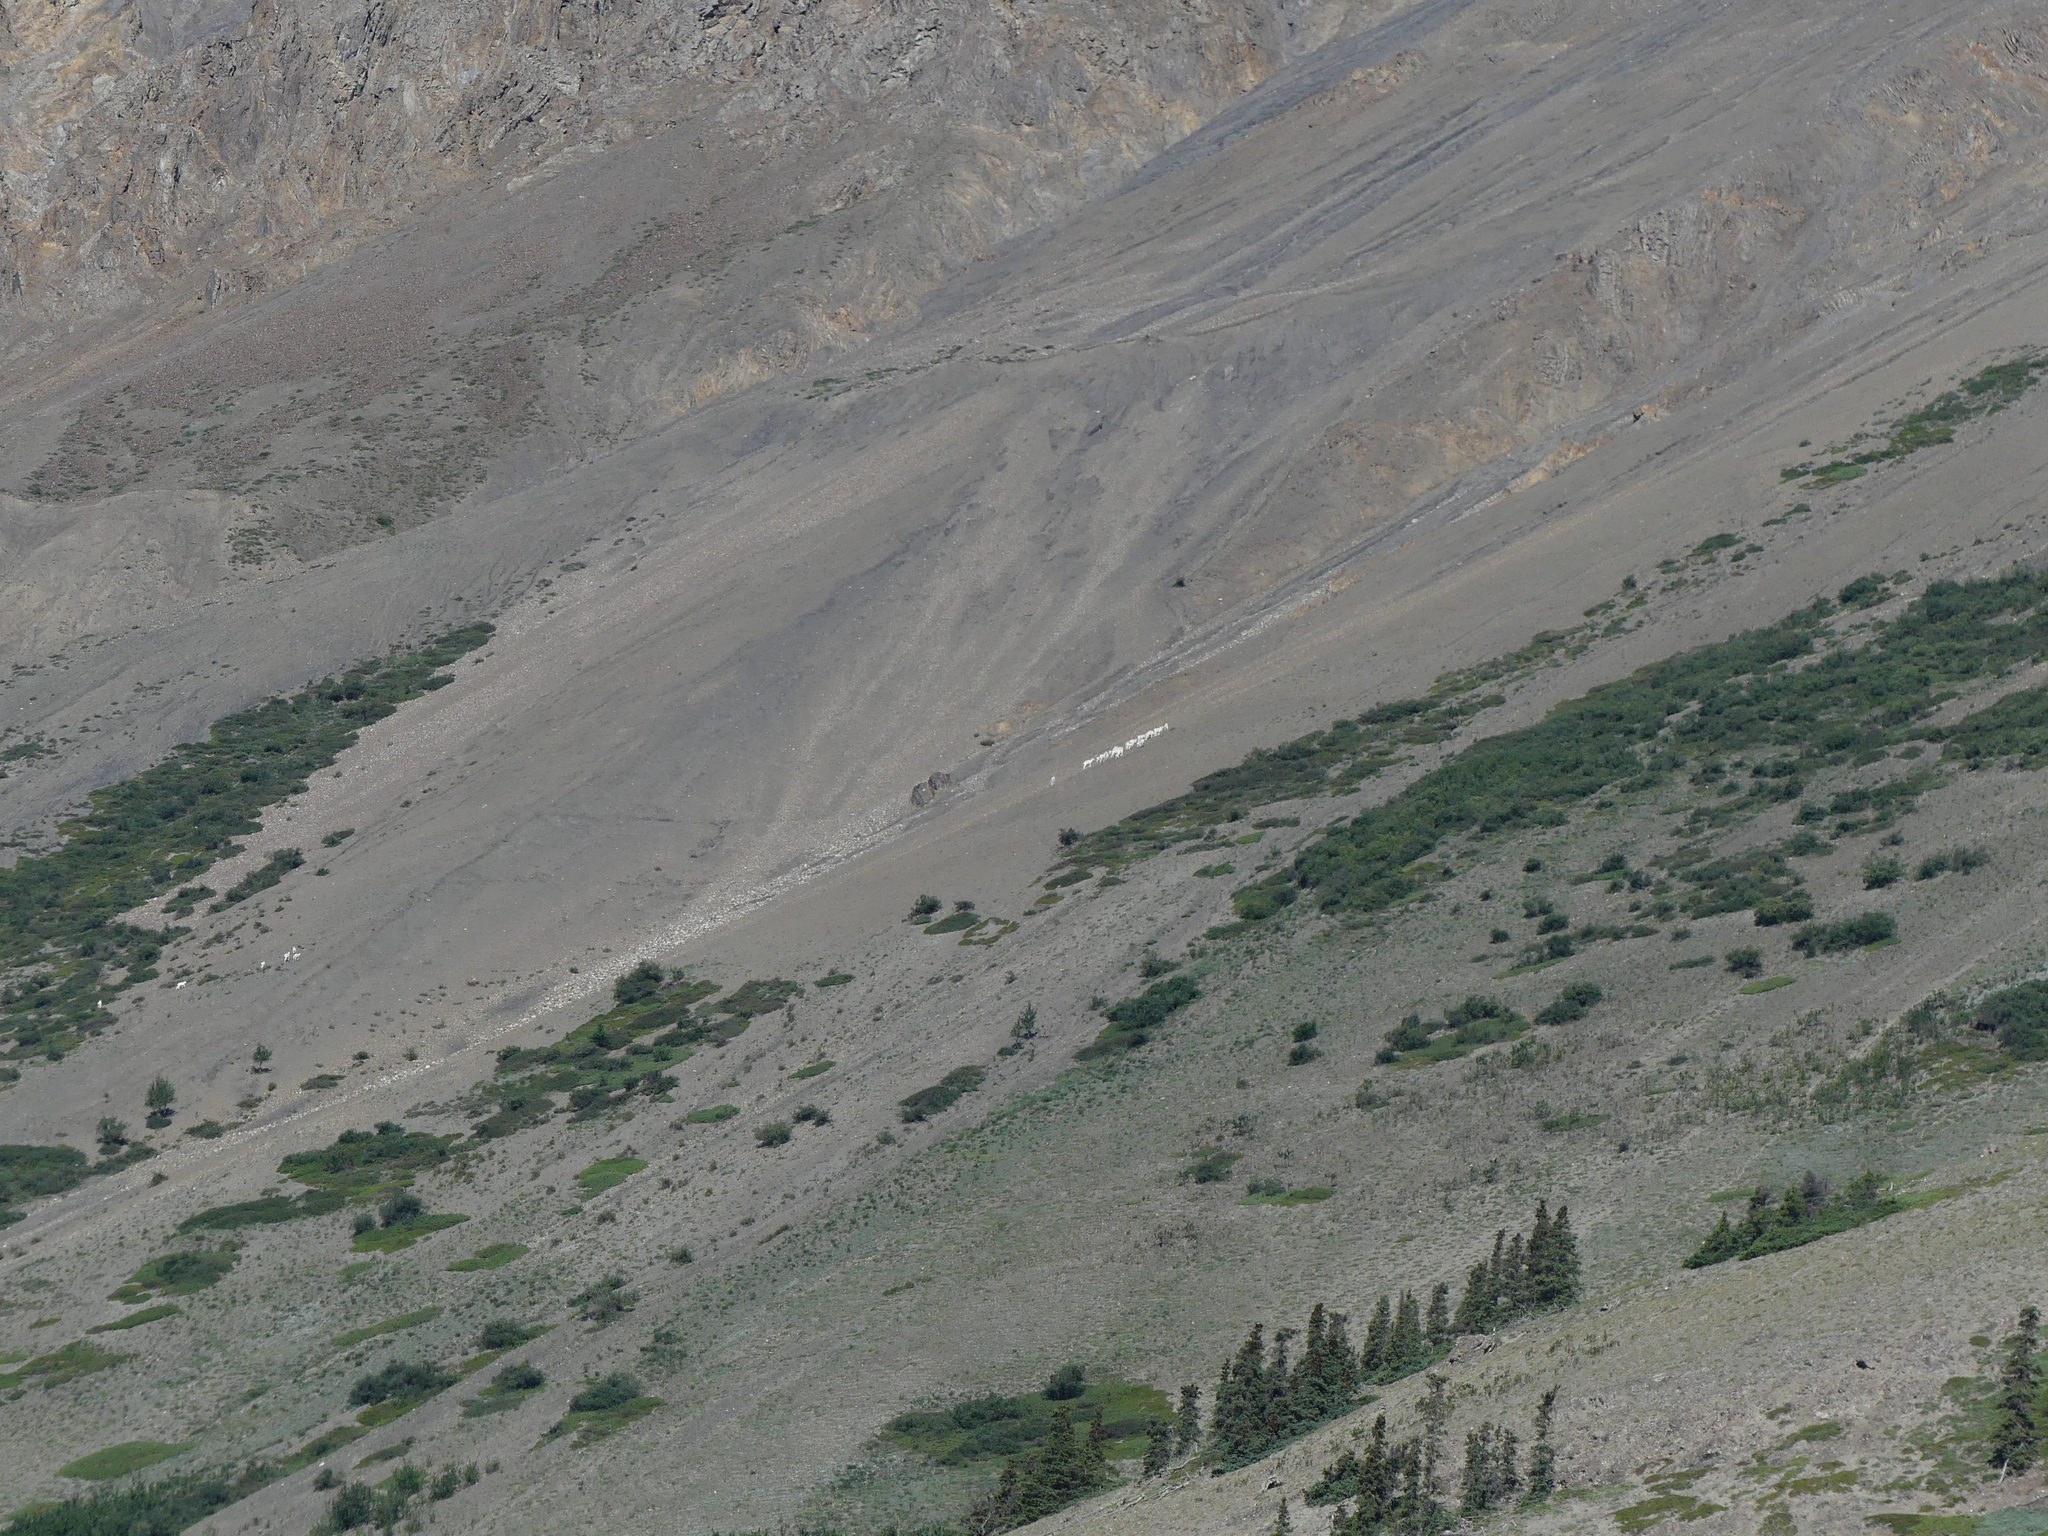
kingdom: Animalia
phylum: Chordata
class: Mammalia
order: Artiodactyla
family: Bovidae
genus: Ovis
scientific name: Ovis dalli
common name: Dall's sheep
